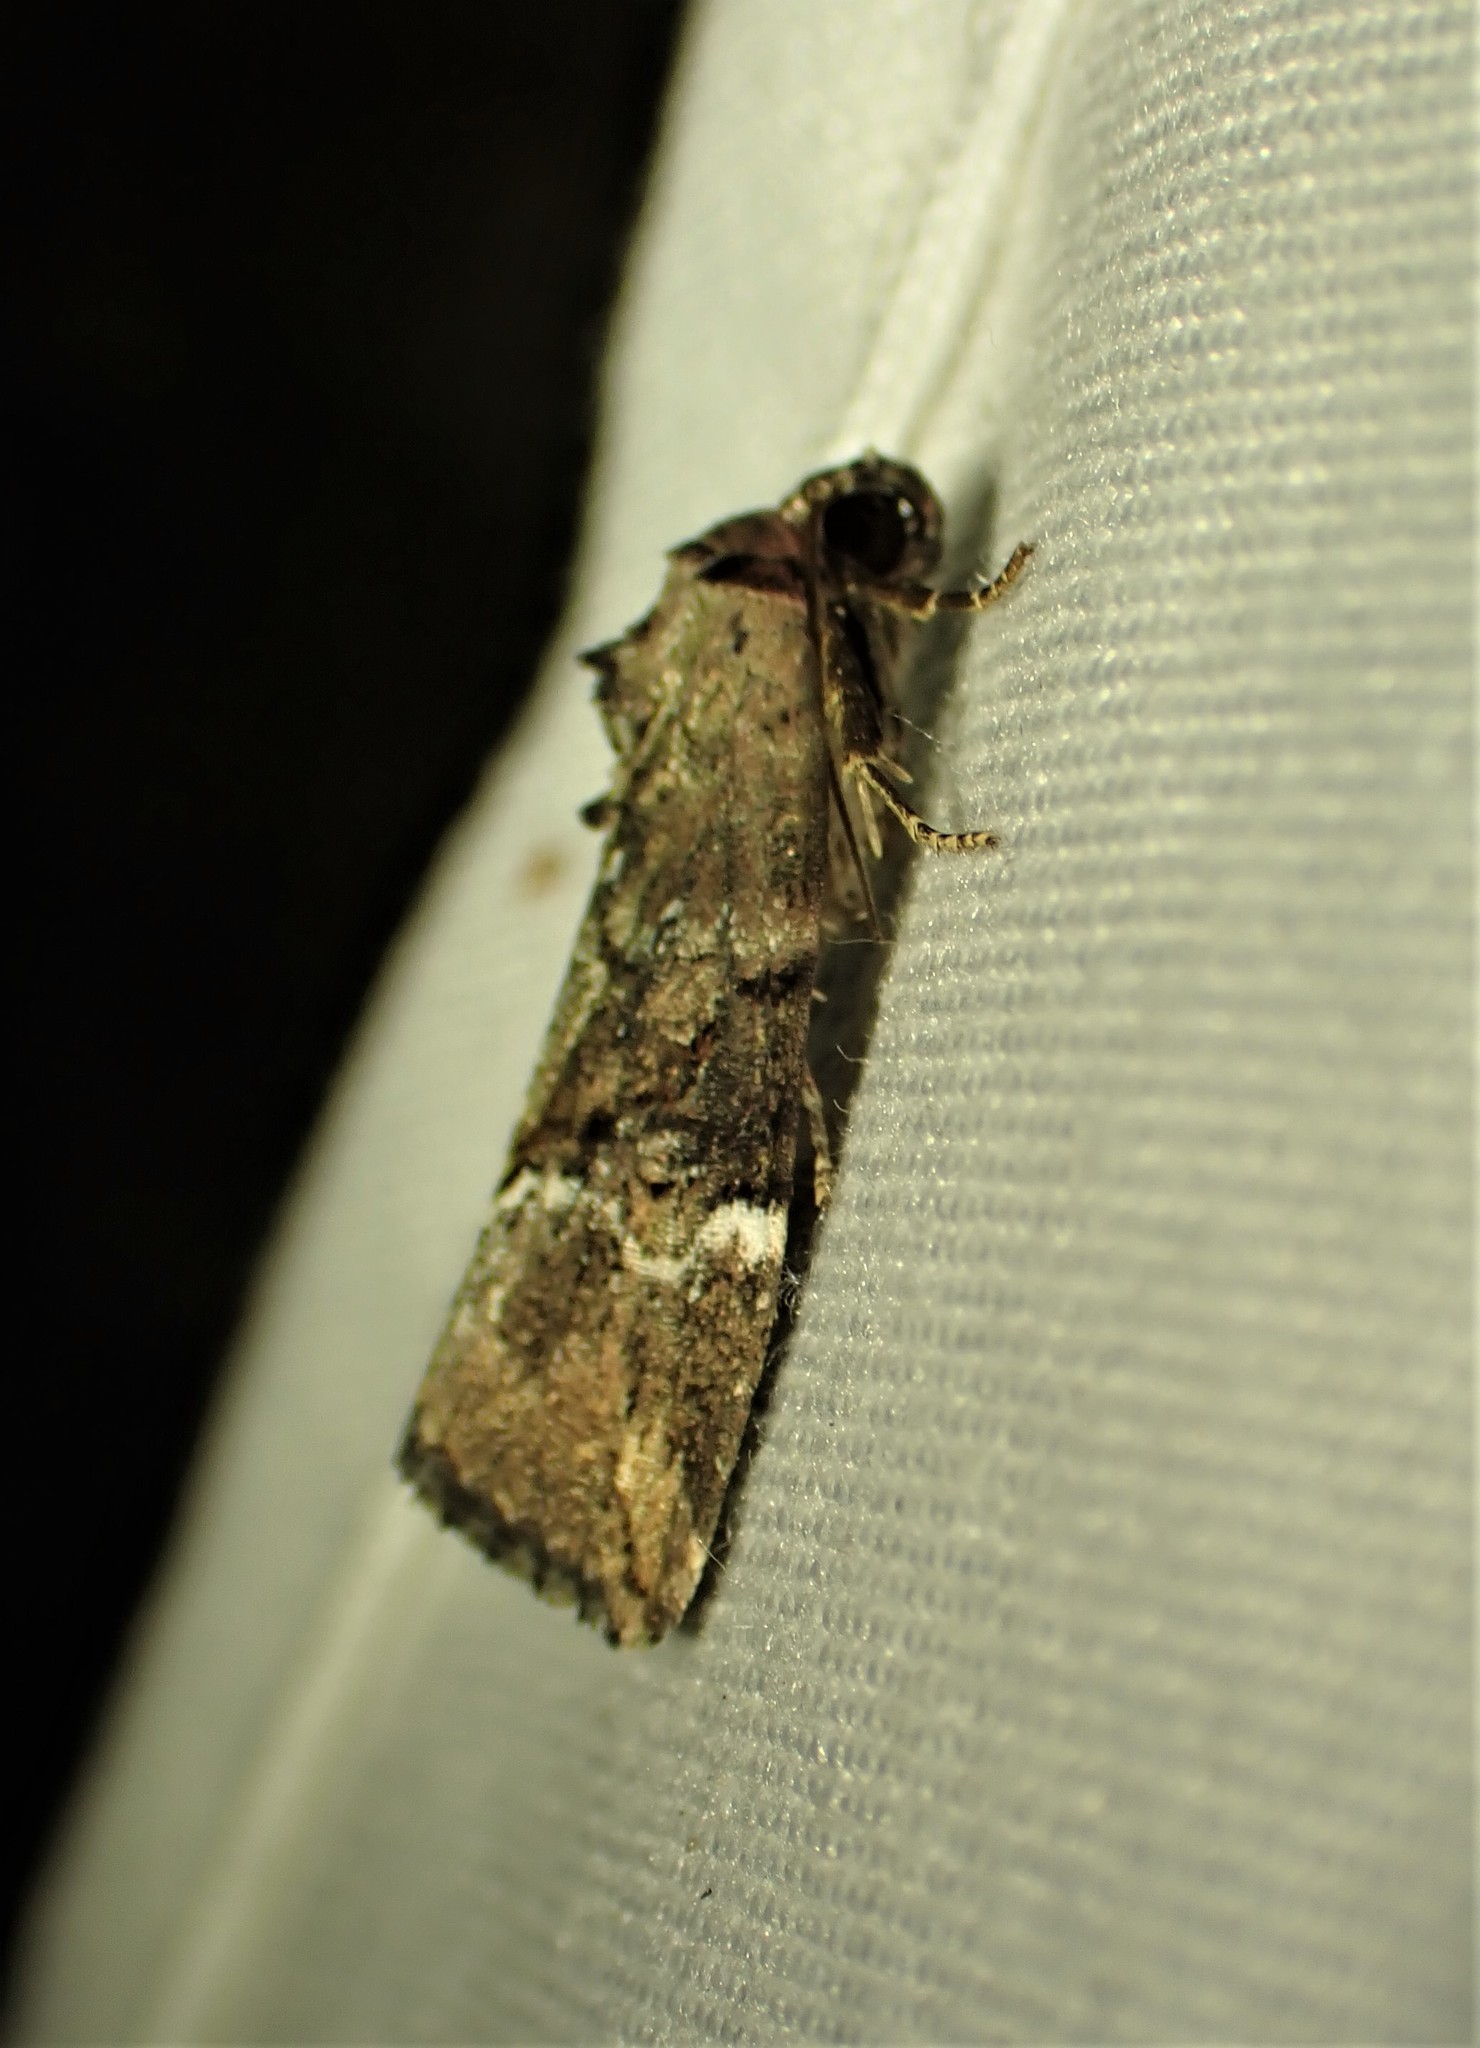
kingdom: Animalia
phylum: Arthropoda
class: Insecta
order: Lepidoptera
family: Noctuidae
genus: Elaphria
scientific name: Elaphria versicolor
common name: Fir harlequin
